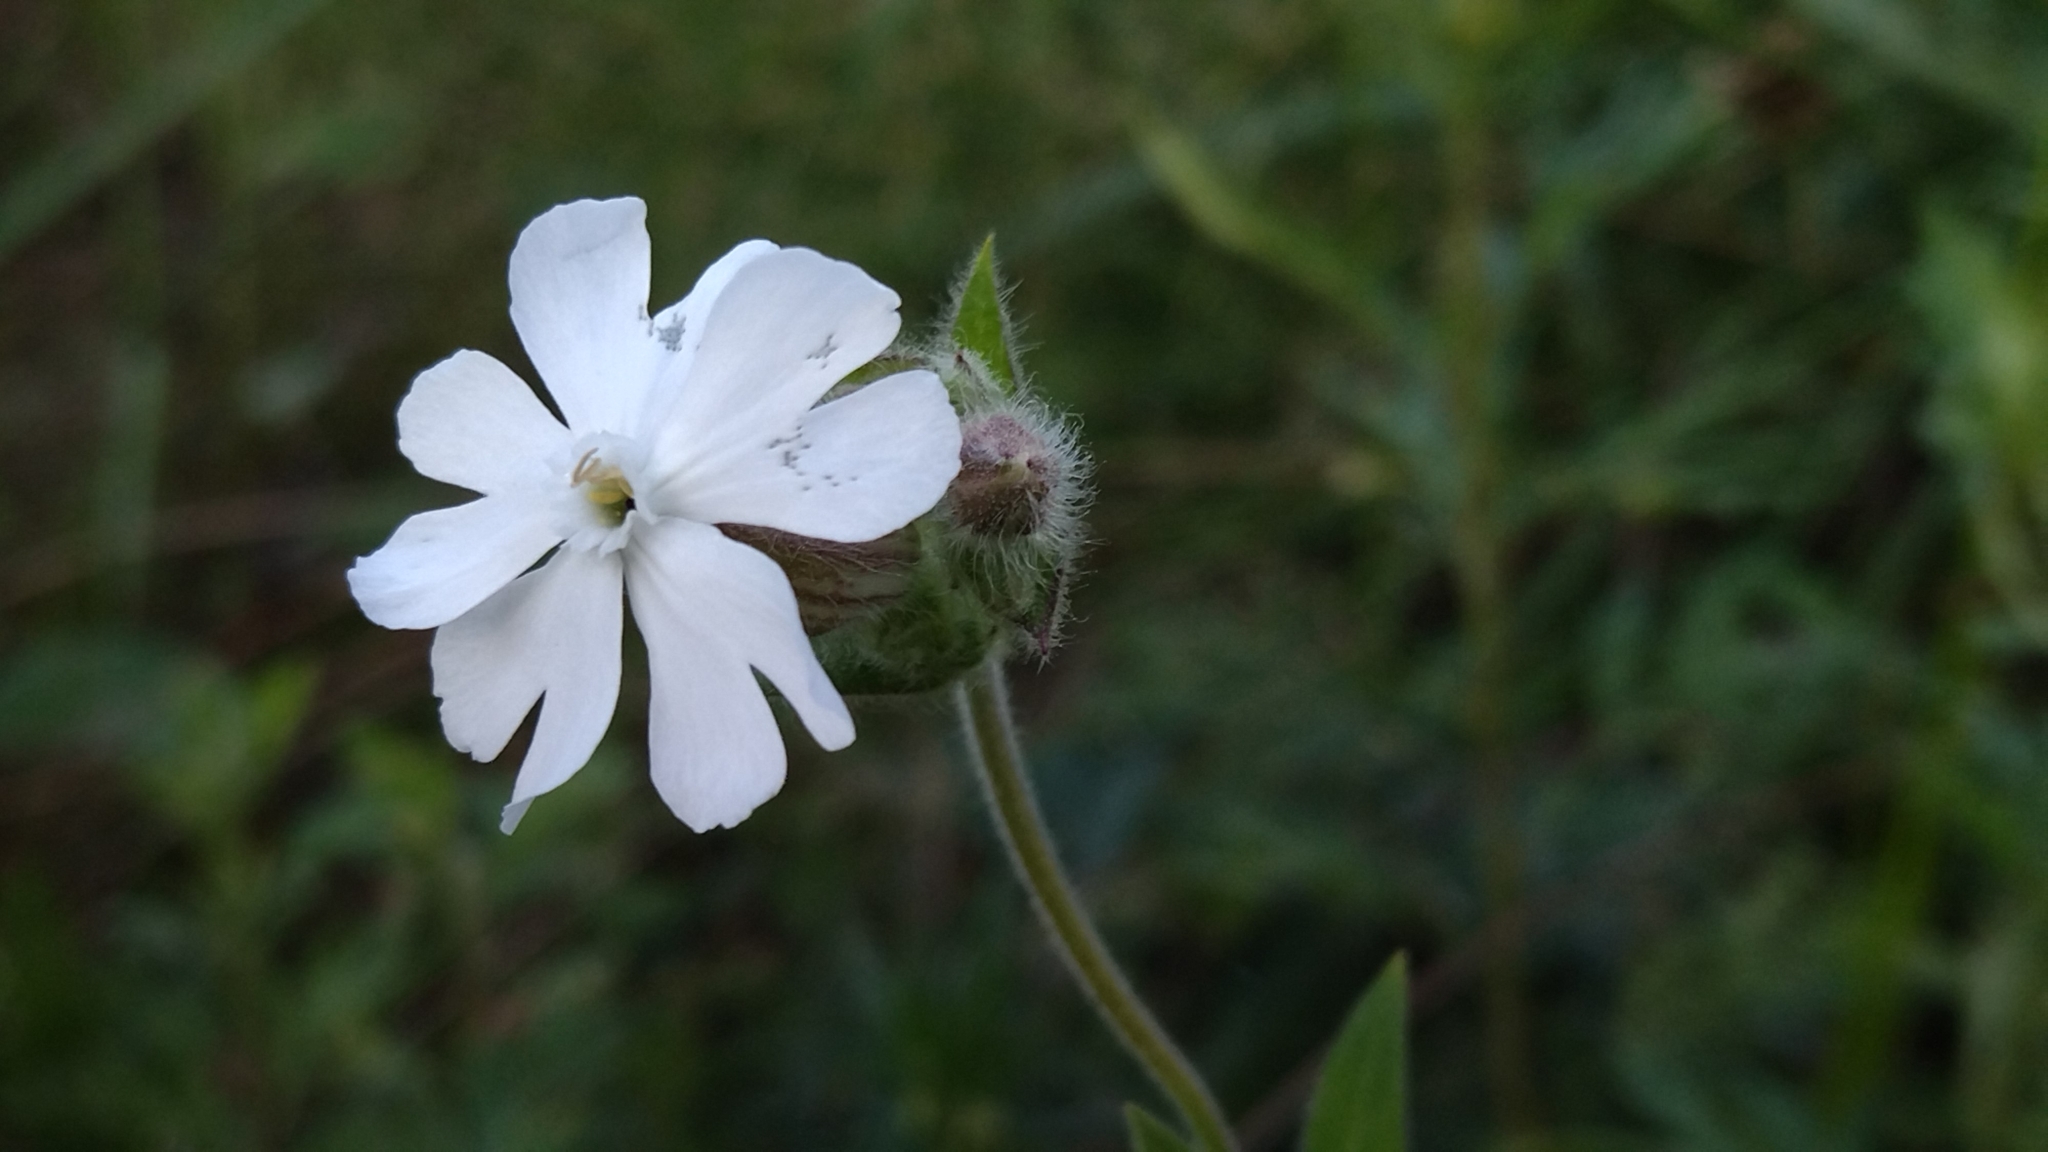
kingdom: Plantae
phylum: Tracheophyta
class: Magnoliopsida
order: Caryophyllales
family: Caryophyllaceae
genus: Silene
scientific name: Silene latifolia
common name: White campion
